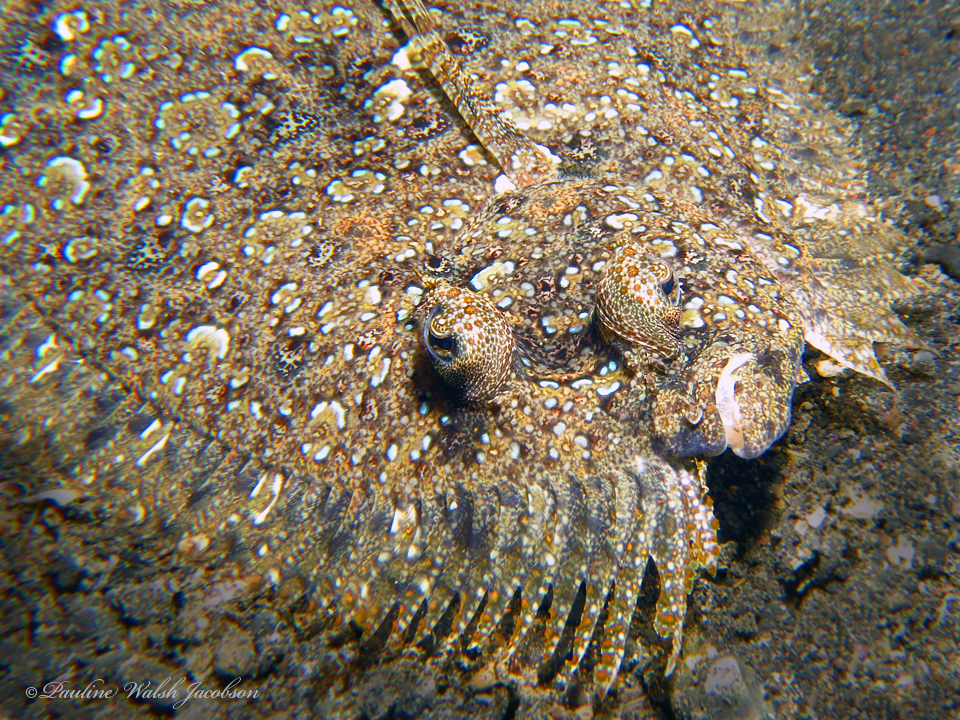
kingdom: Animalia
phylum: Chordata
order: Pleuronectiformes
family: Bothidae
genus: Bothus
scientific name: Bothus pantherinus
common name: Leopard flounder
